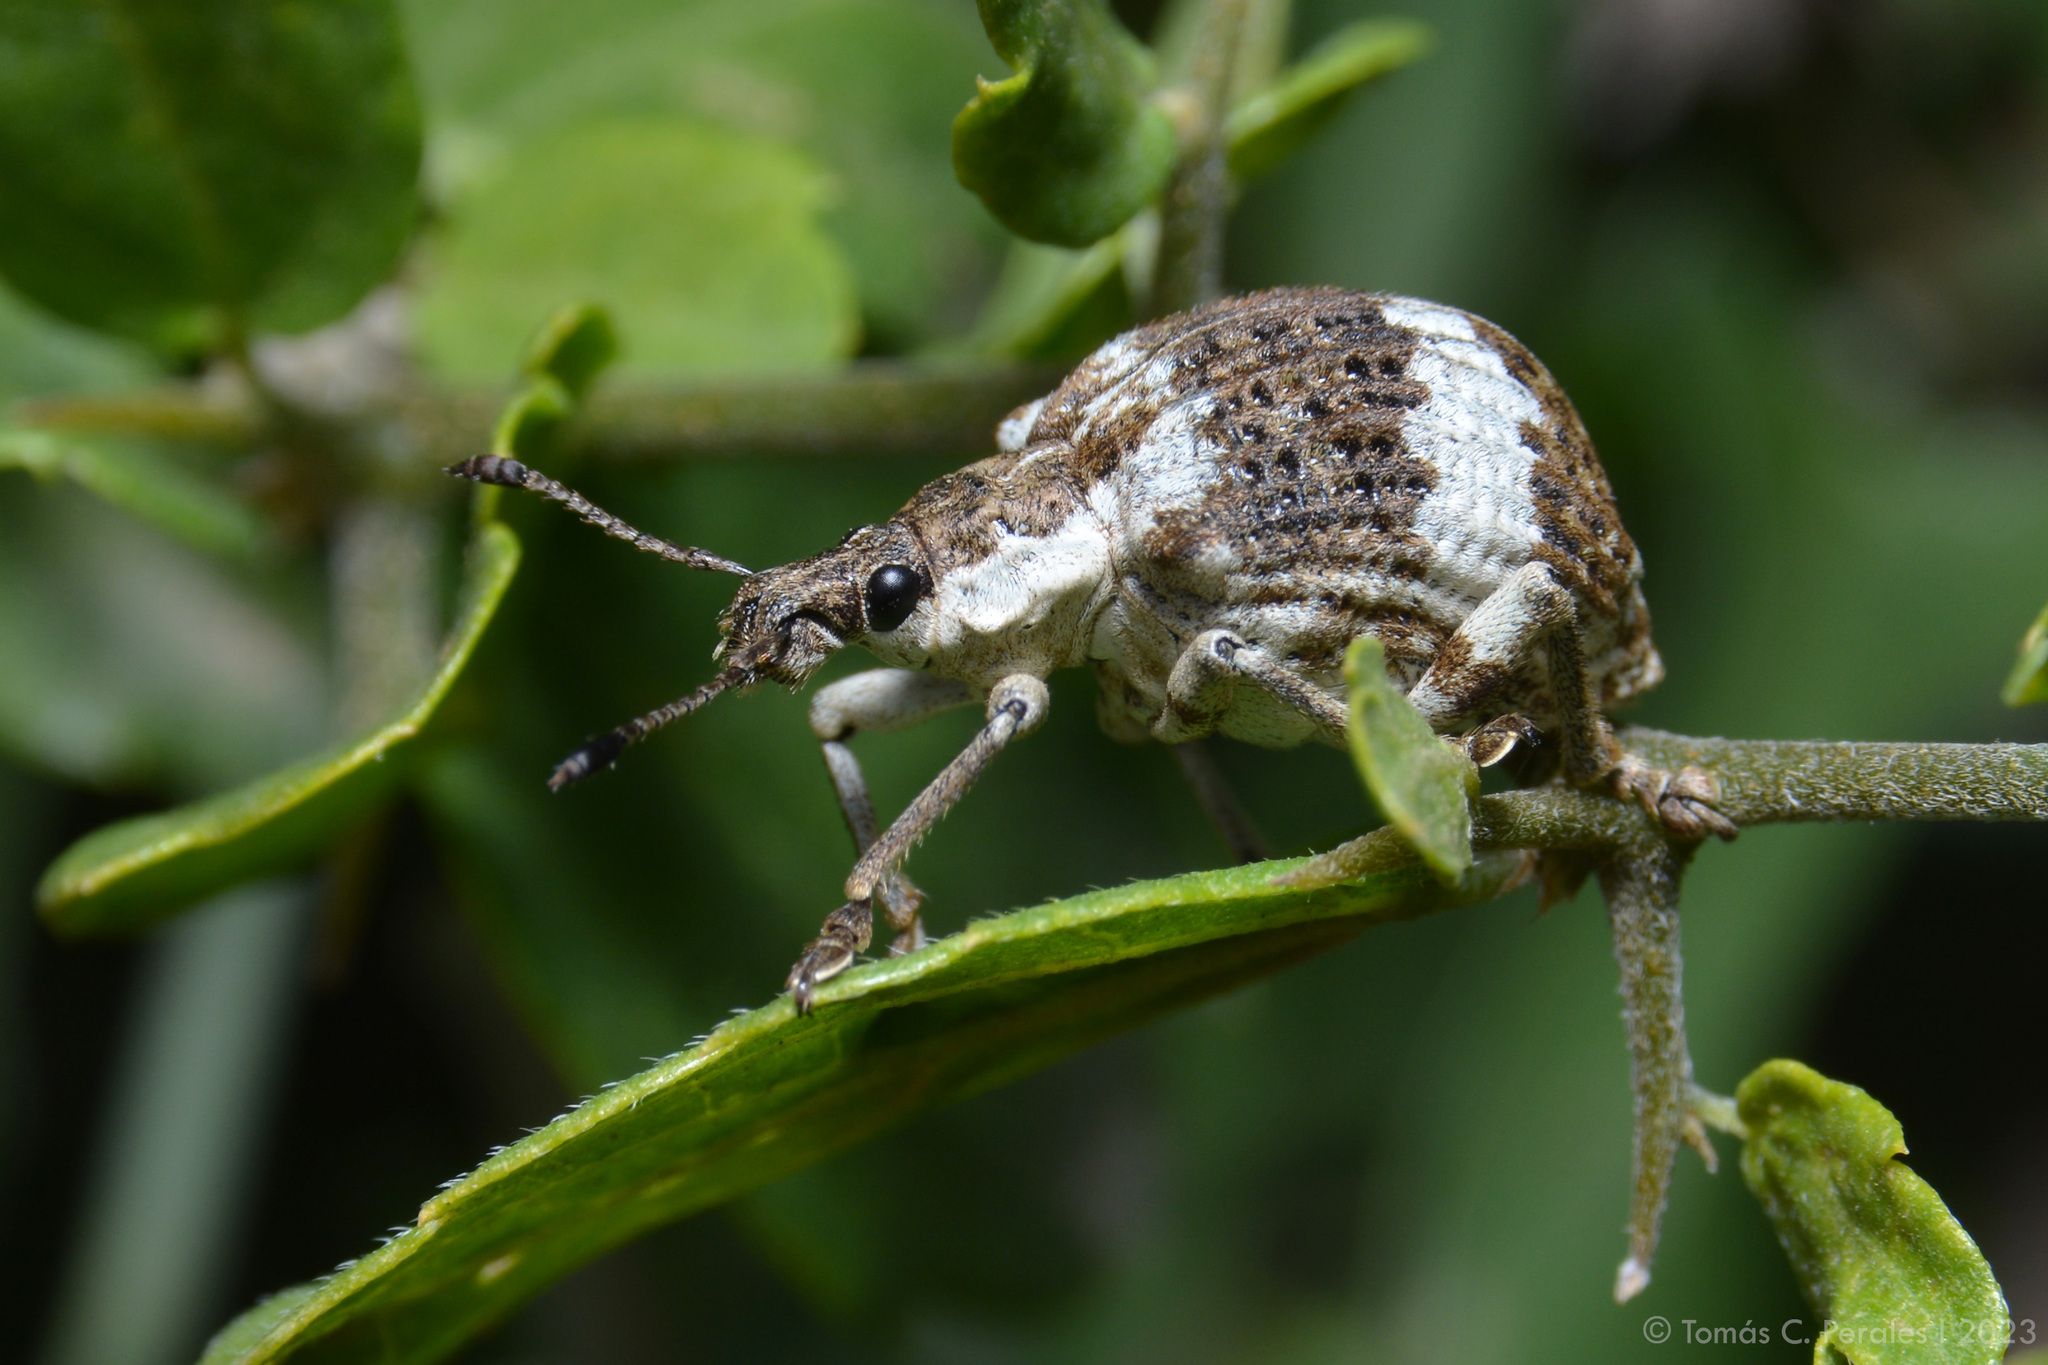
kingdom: Animalia
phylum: Arthropoda
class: Insecta
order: Coleoptera
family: Curculionidae
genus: Polyteles
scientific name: Polyteles guerini
